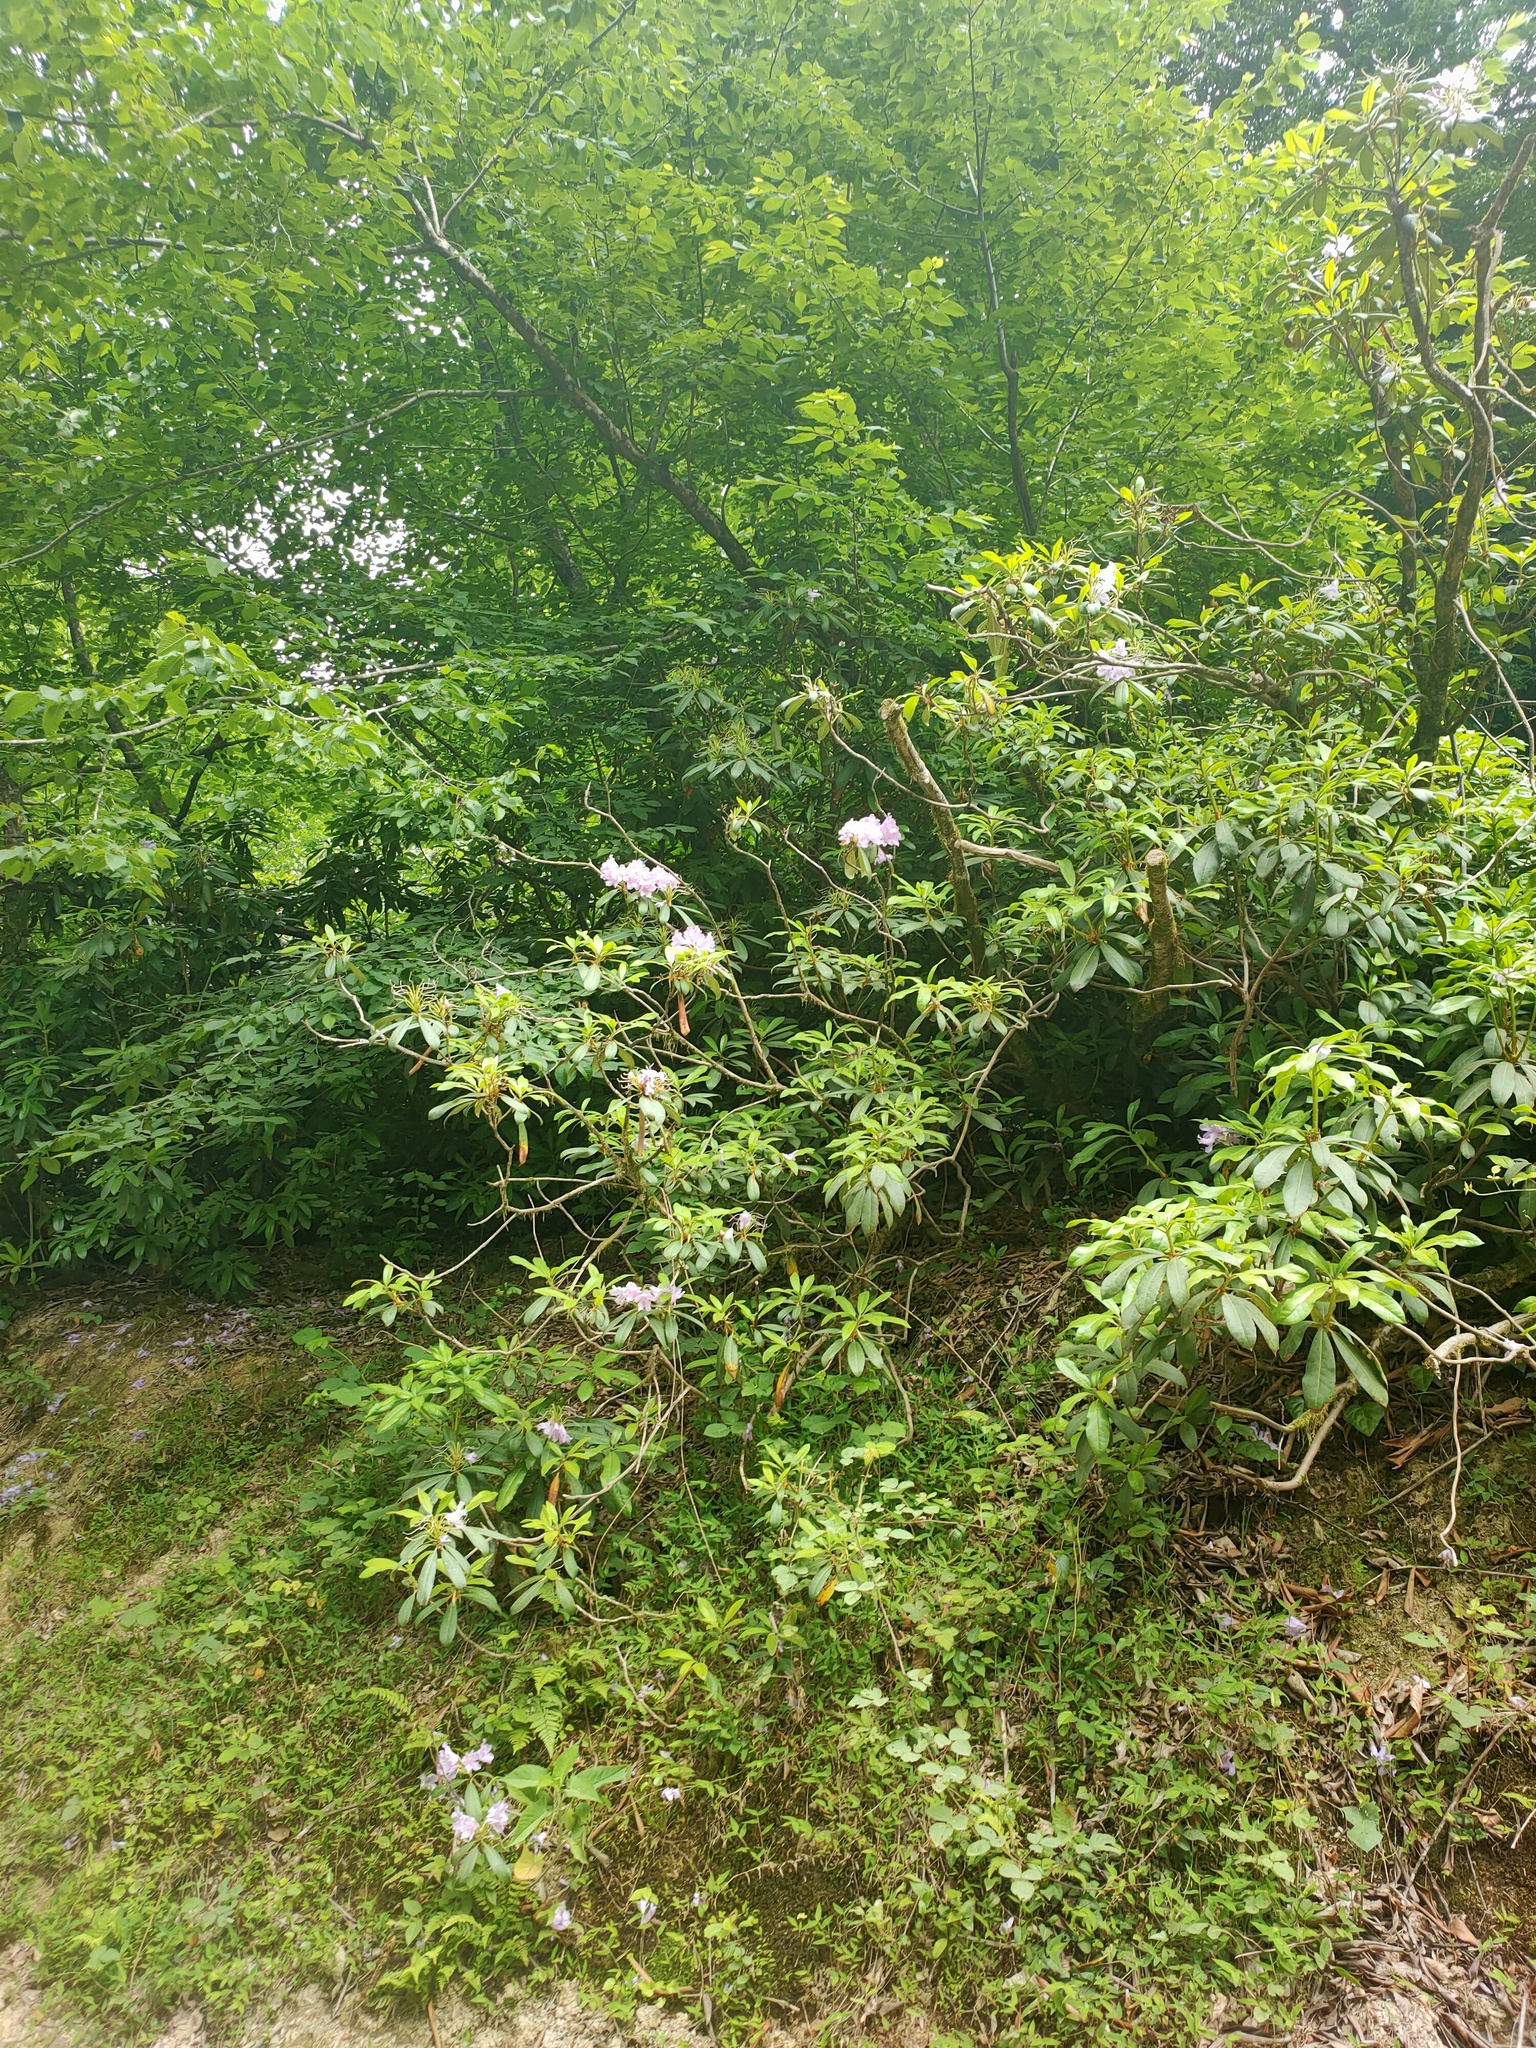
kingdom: Plantae
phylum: Tracheophyta
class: Magnoliopsida
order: Ericales
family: Ericaceae
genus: Rhododendron
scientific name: Rhododendron ponticum
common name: Rhododendron
